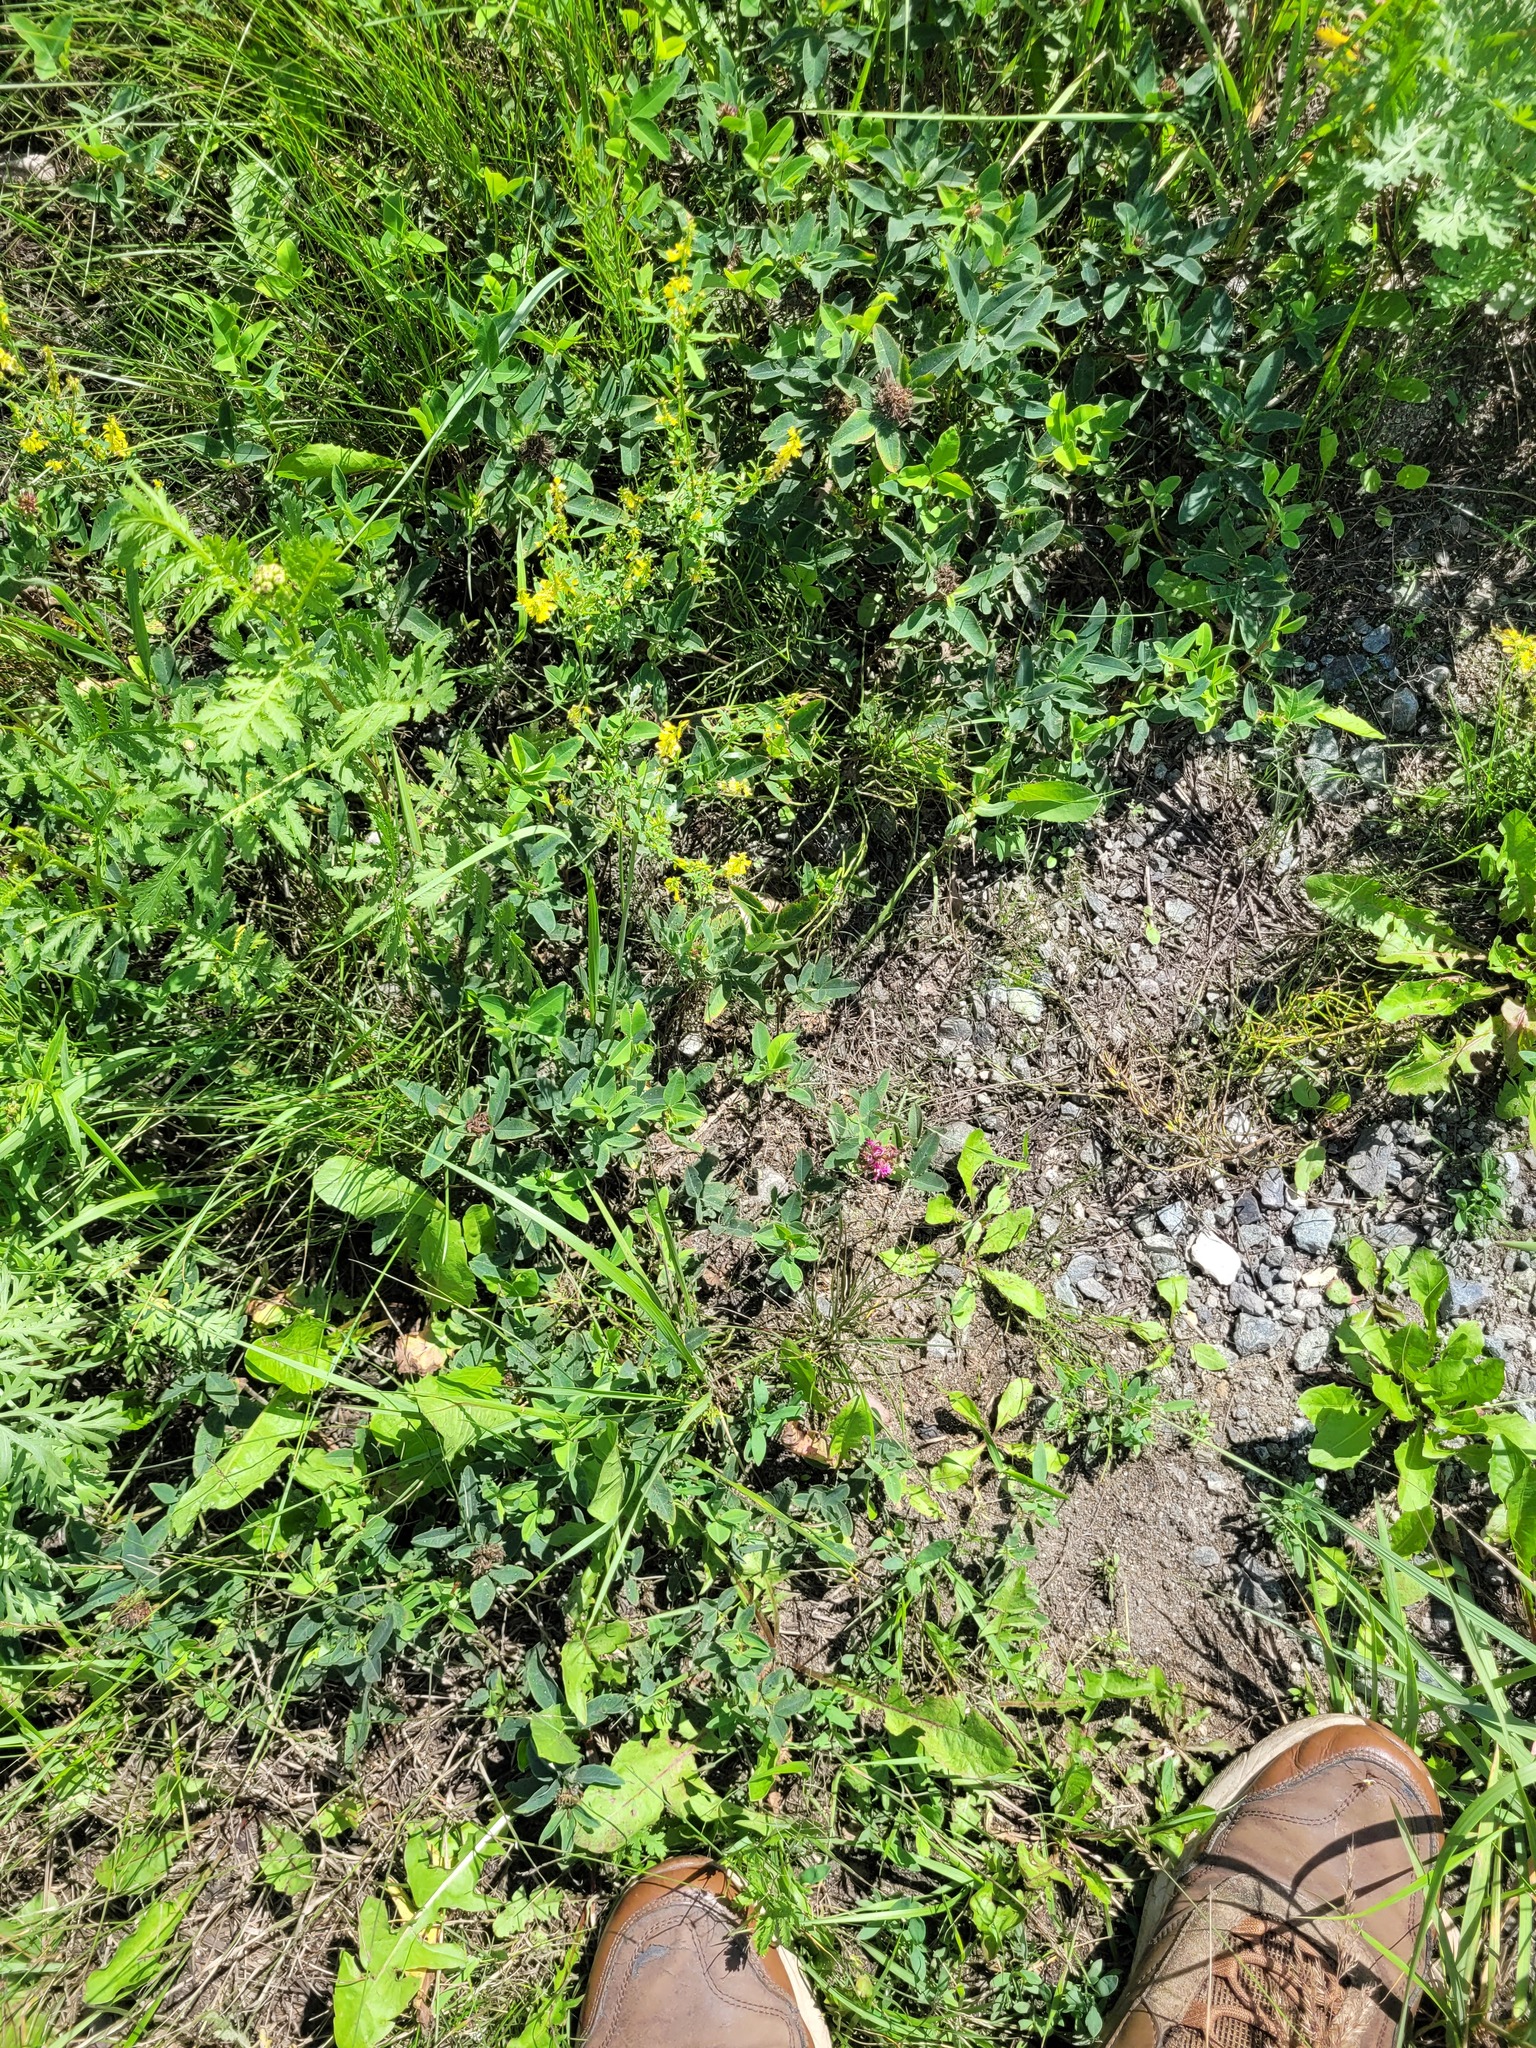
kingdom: Plantae
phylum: Tracheophyta
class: Magnoliopsida
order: Fabales
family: Fabaceae
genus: Trifolium
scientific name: Trifolium medium
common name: Zigzag clover
